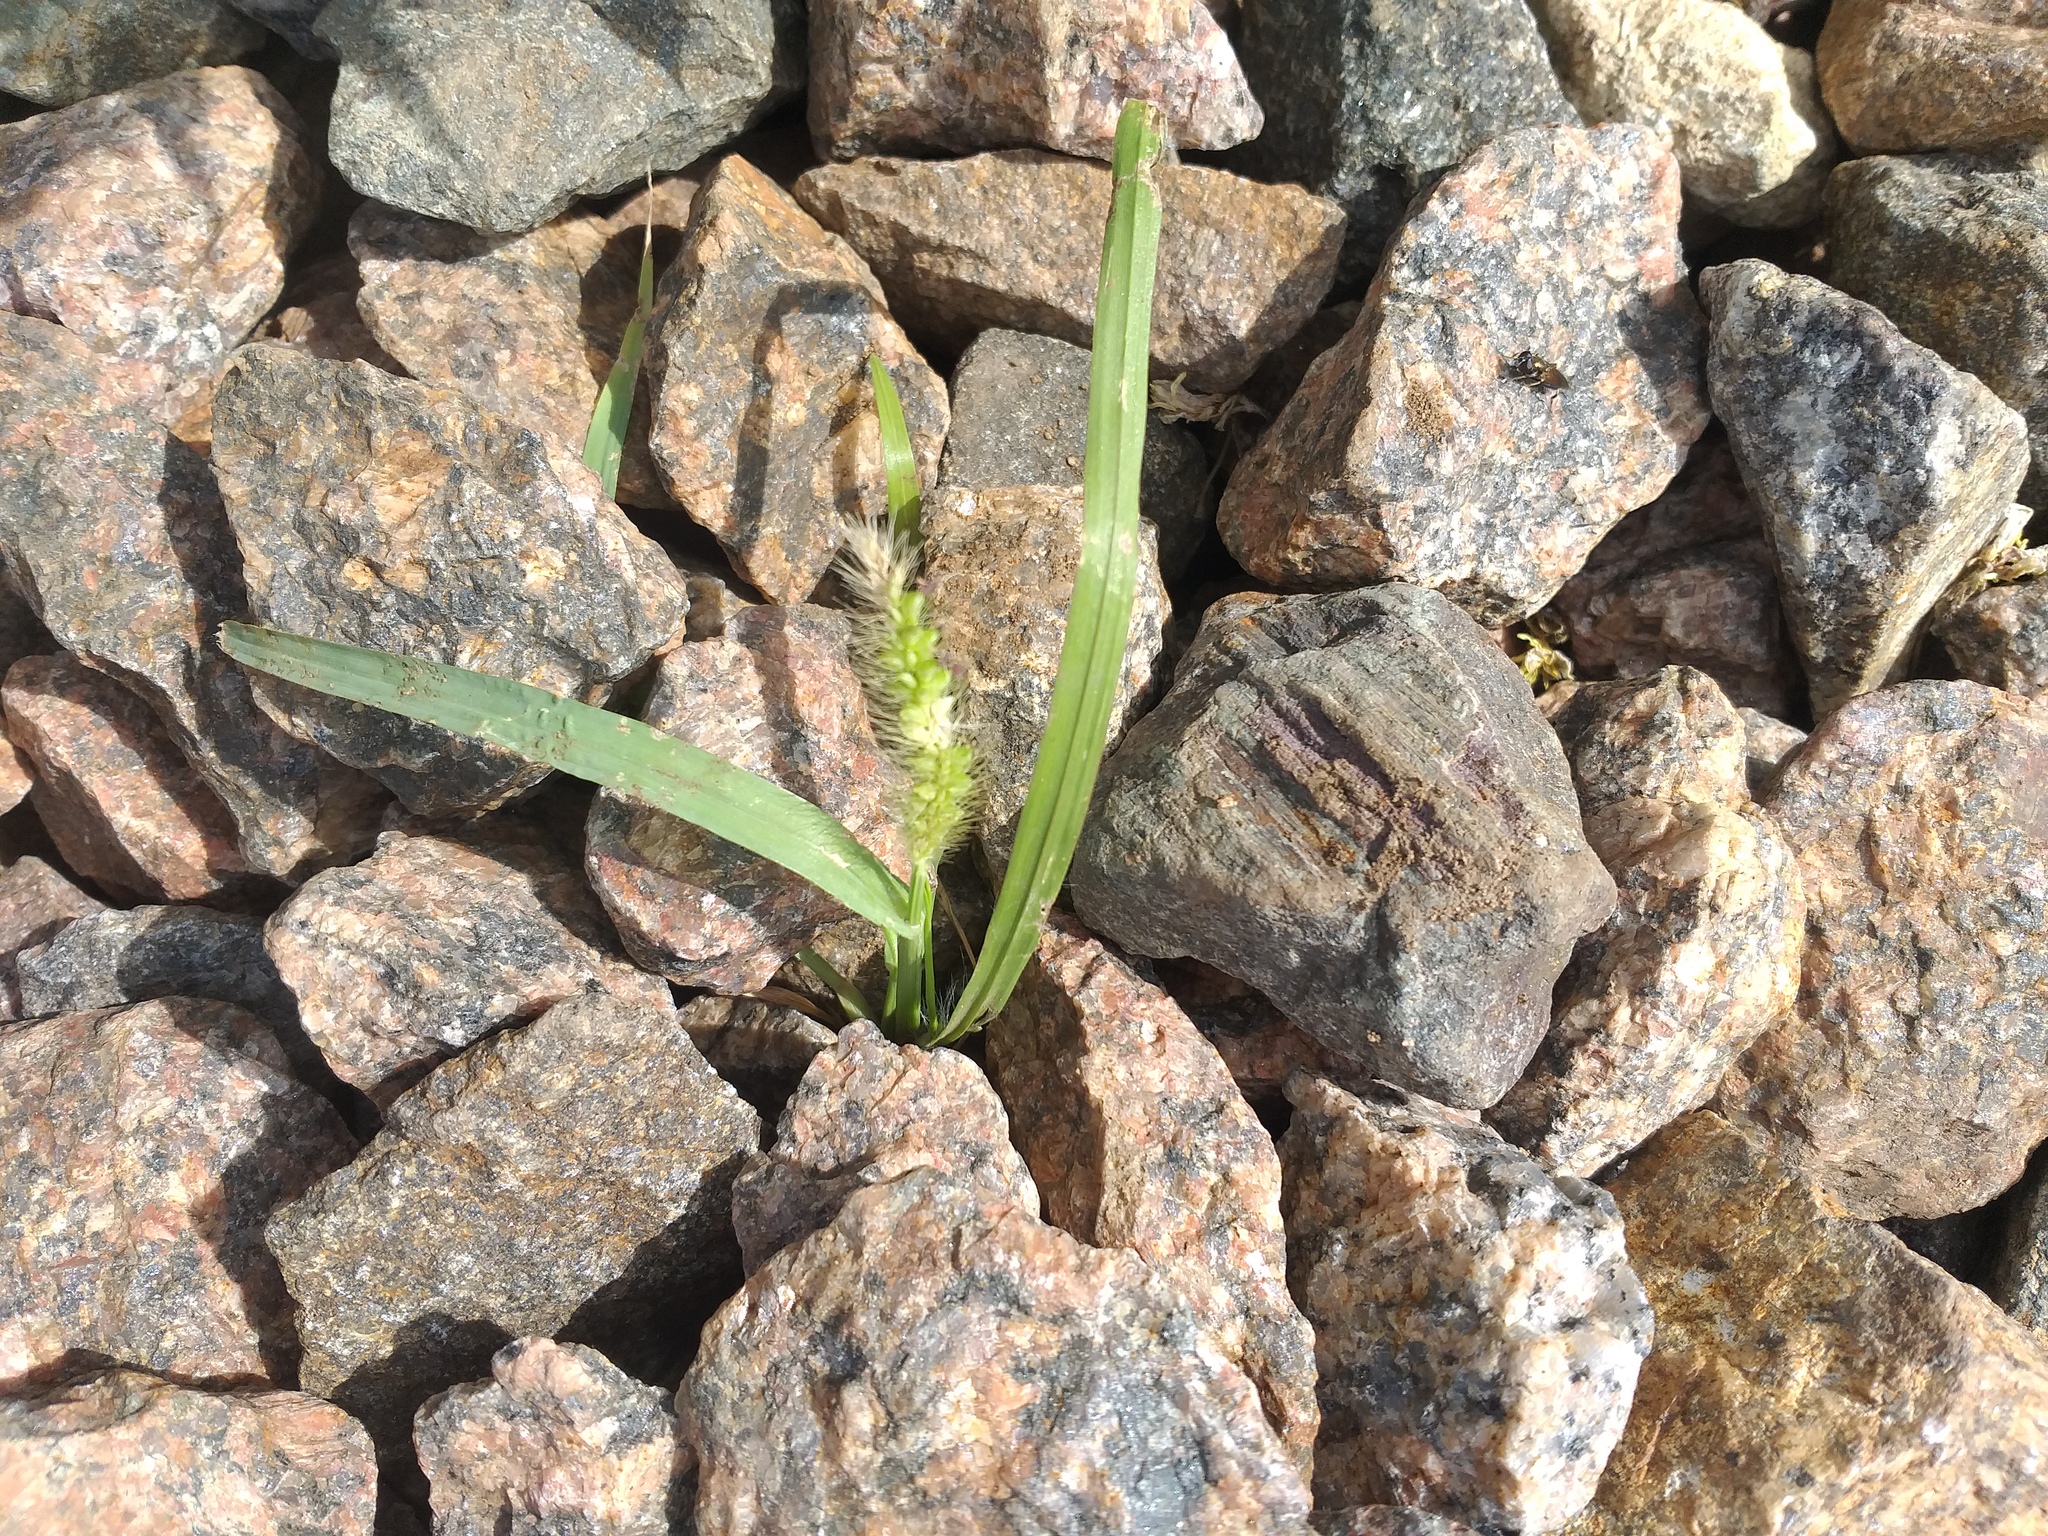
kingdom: Plantae
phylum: Tracheophyta
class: Liliopsida
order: Poales
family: Poaceae
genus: Setaria
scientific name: Setaria viridis
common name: Green bristlegrass
